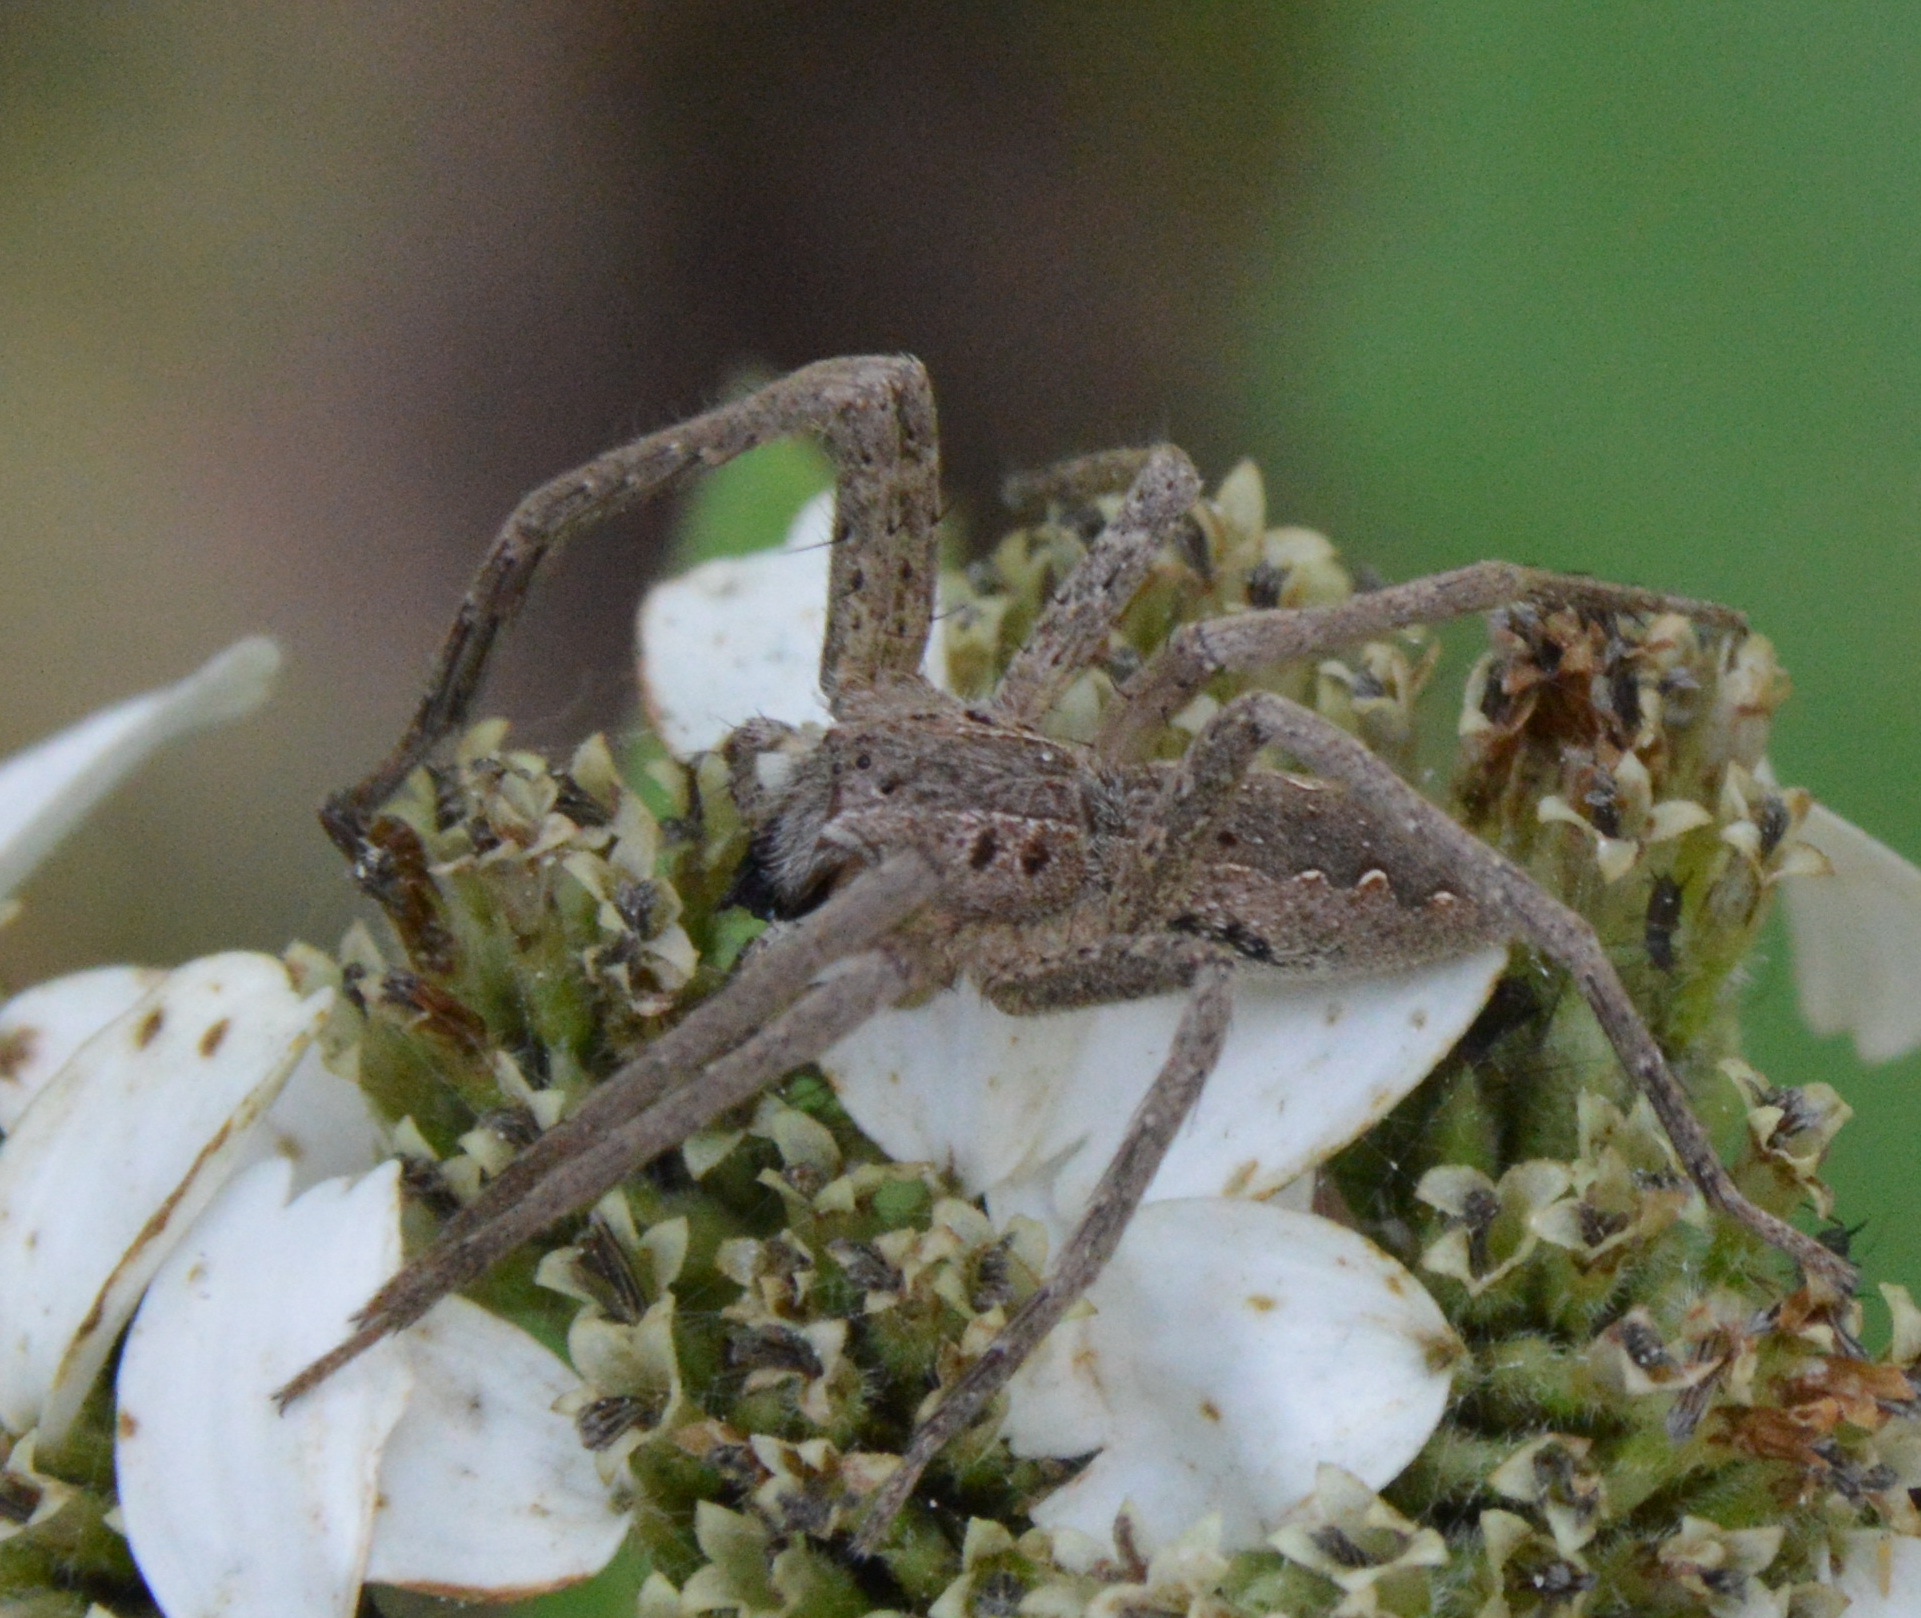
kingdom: Animalia
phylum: Arthropoda
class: Arachnida
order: Araneae
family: Pisauridae
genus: Pisaurina
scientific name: Pisaurina mira
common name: American nursery web spider
